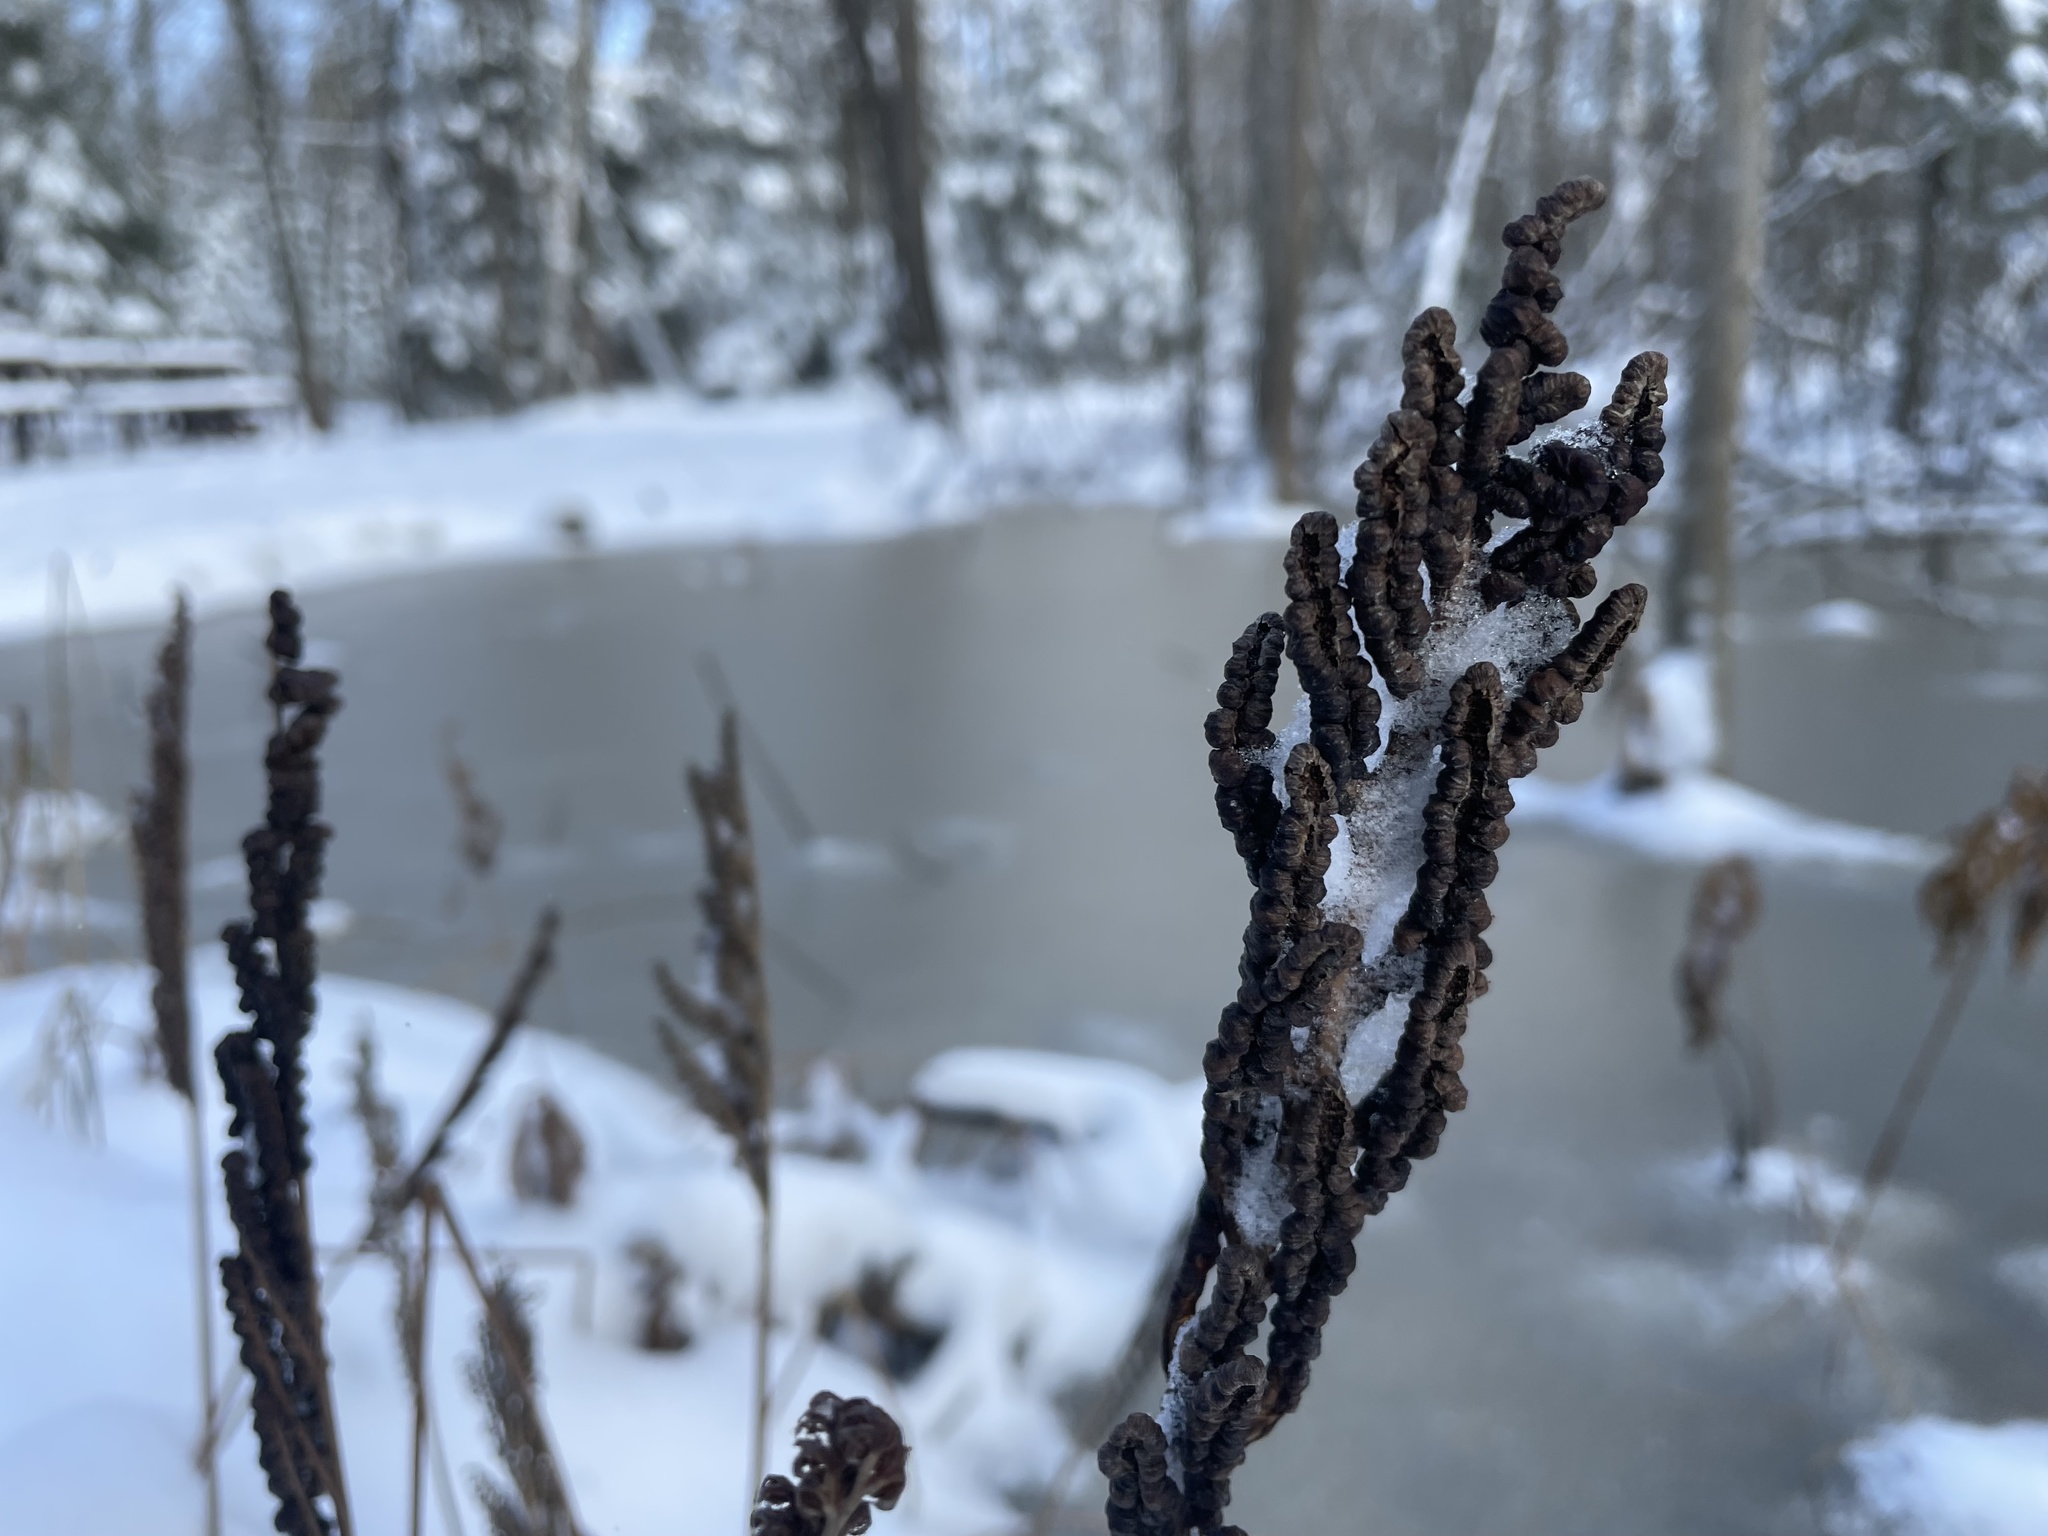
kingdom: Plantae
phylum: Tracheophyta
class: Polypodiopsida
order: Polypodiales
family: Onocleaceae
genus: Onoclea
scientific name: Onoclea sensibilis
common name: Sensitive fern
